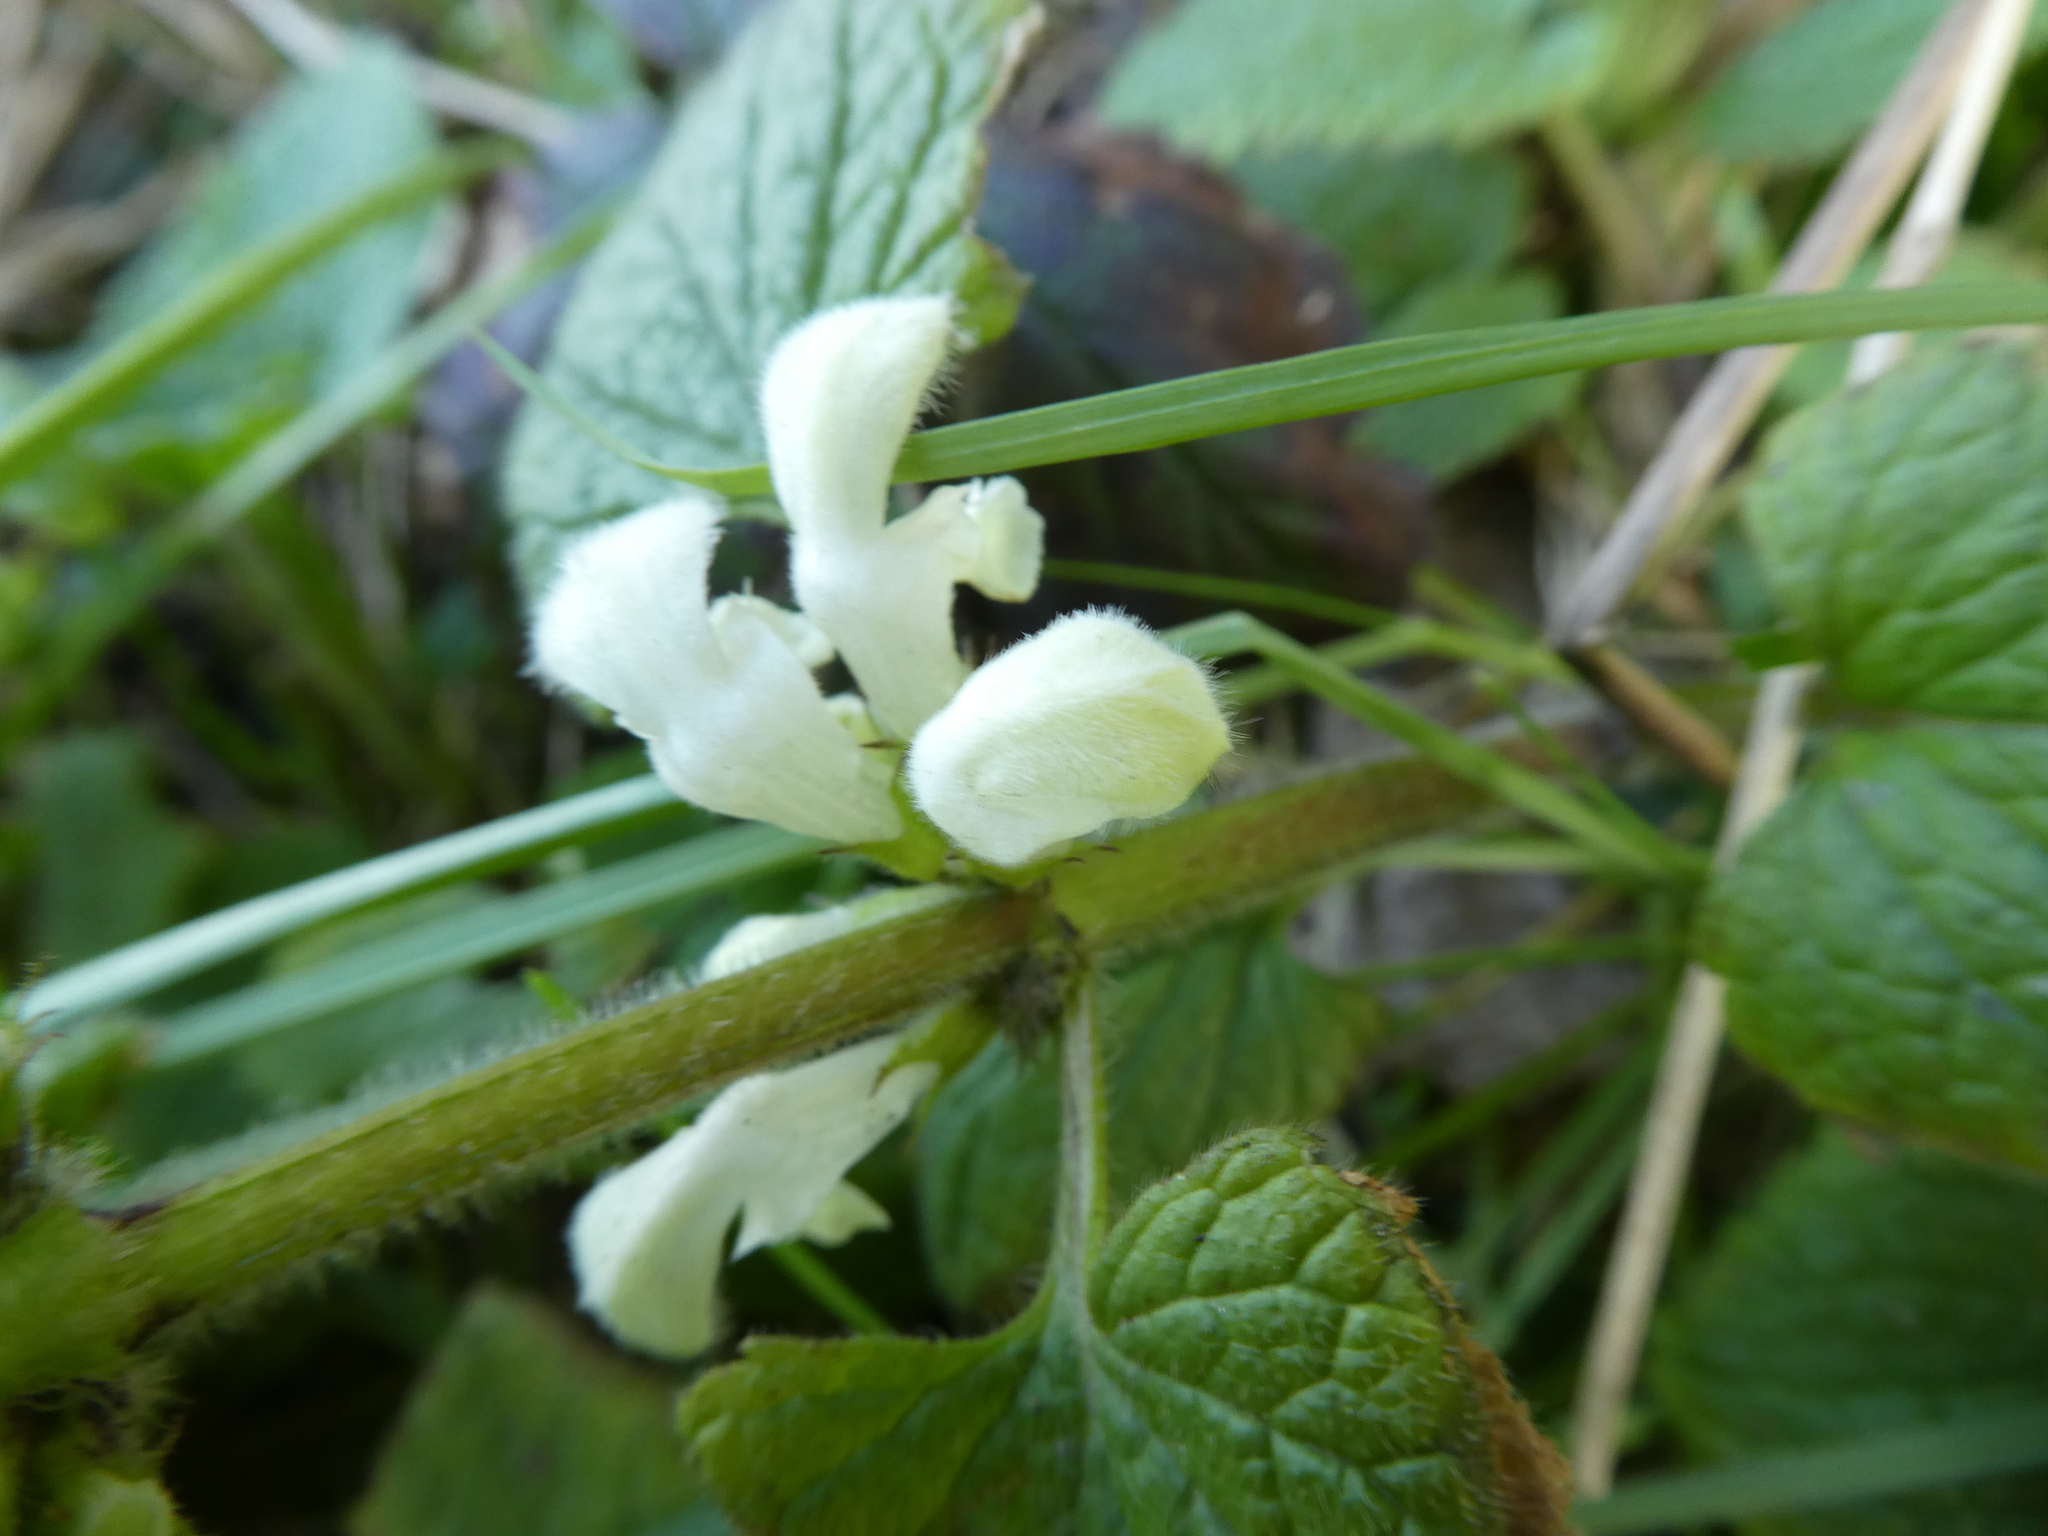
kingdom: Plantae
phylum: Tracheophyta
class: Magnoliopsida
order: Lamiales
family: Lamiaceae
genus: Lamium
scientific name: Lamium album
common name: White dead-nettle
